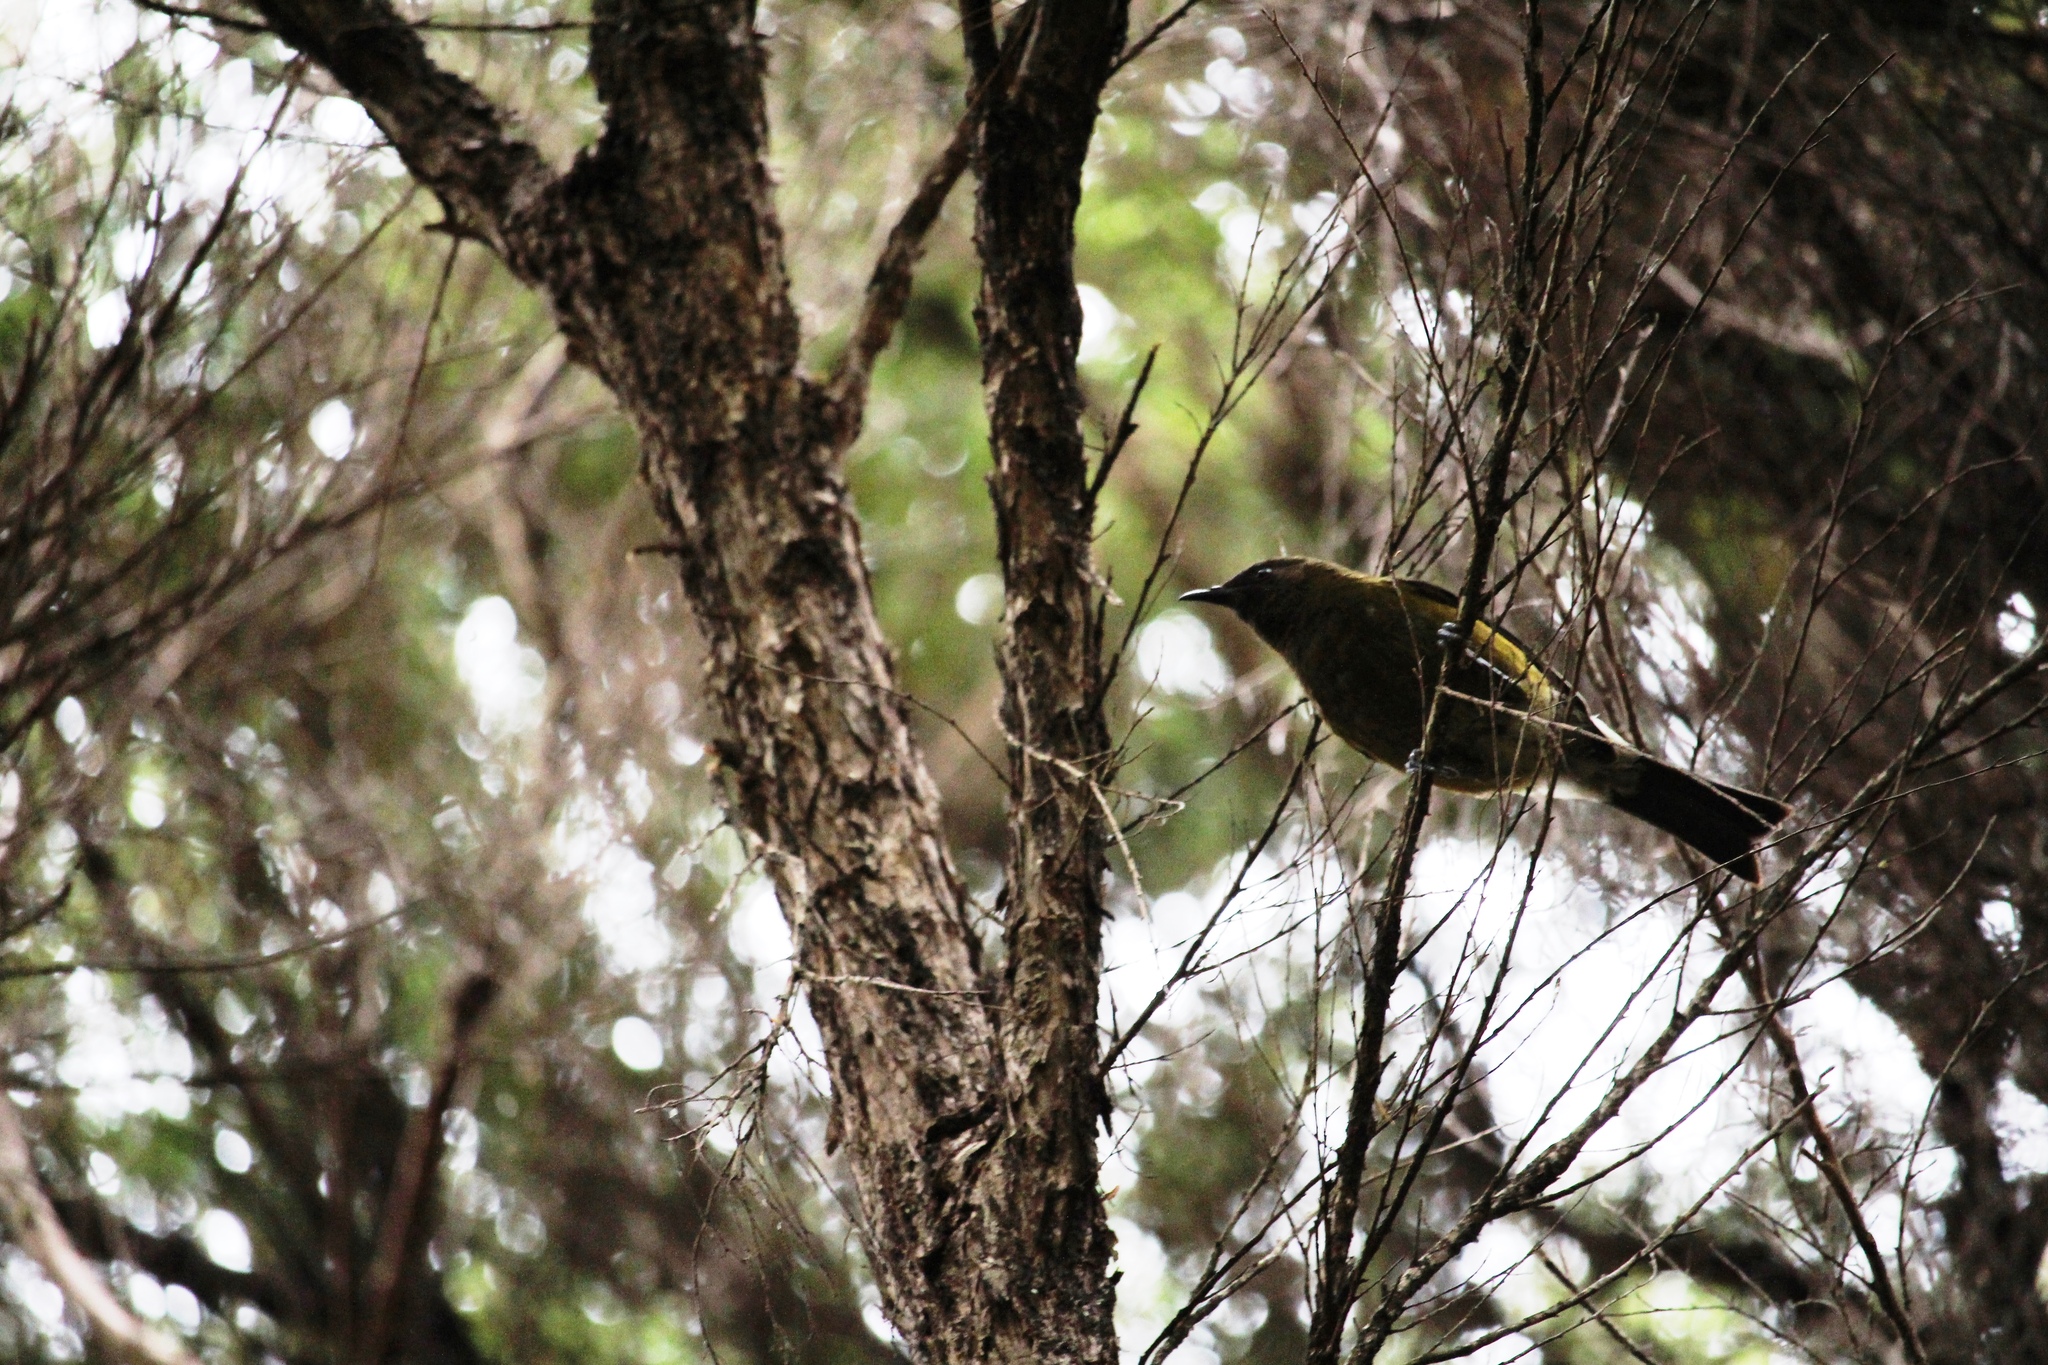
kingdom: Animalia
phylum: Chordata
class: Aves
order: Passeriformes
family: Meliphagidae
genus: Anthornis
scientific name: Anthornis melanura
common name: New zealand bellbird
